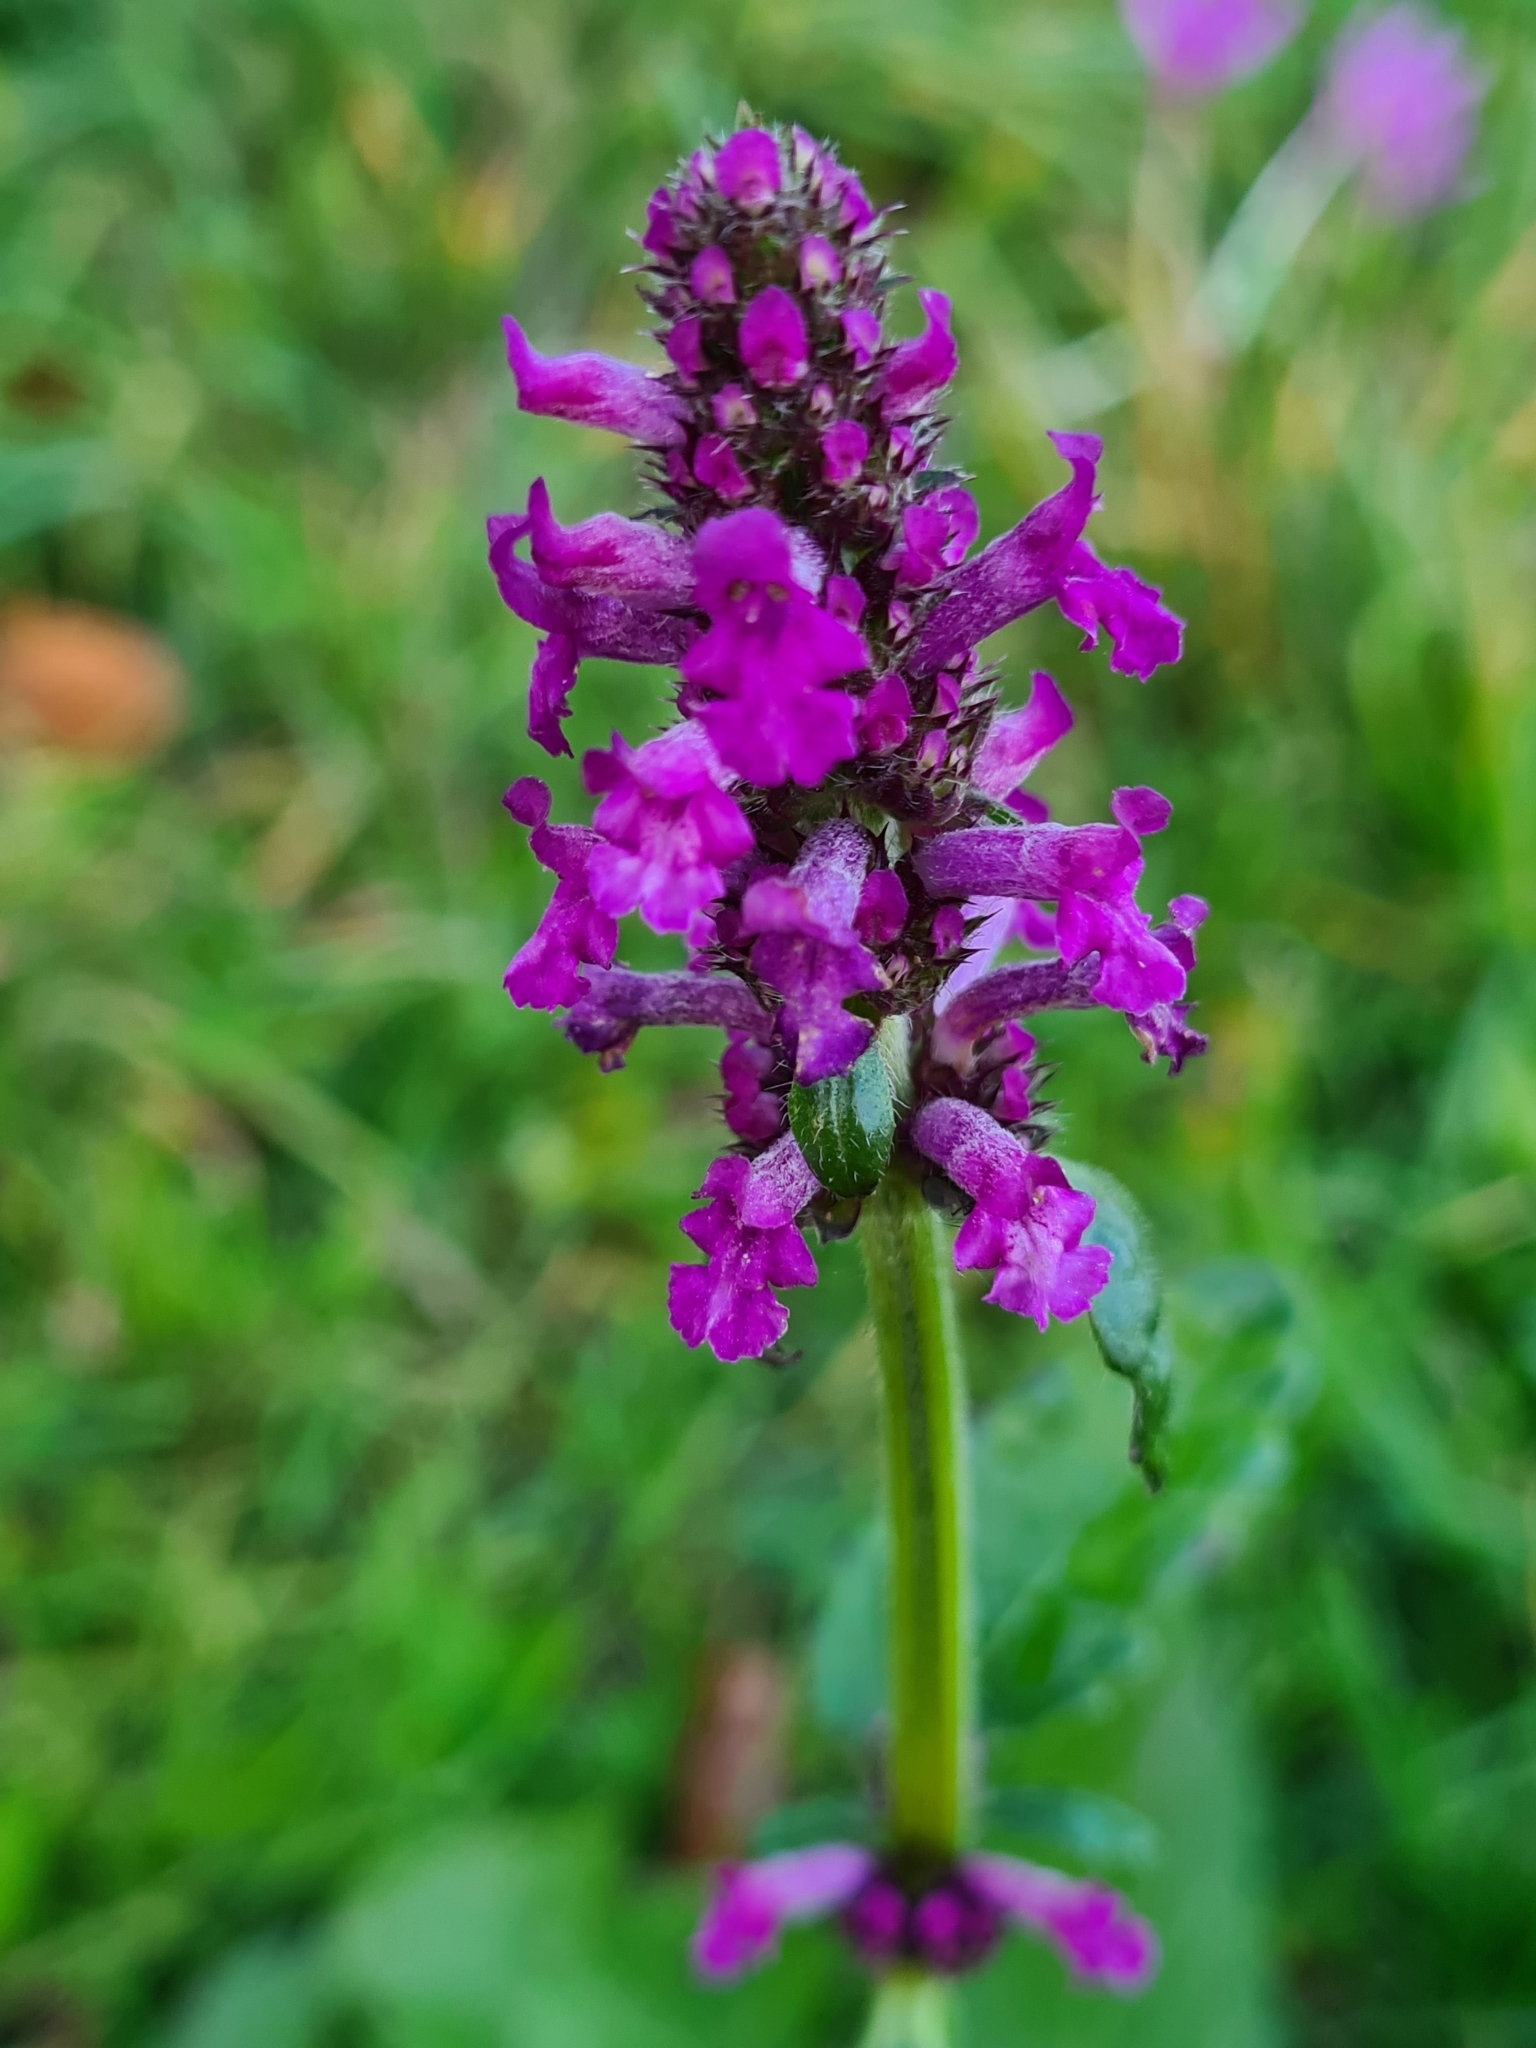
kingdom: Plantae
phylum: Tracheophyta
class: Magnoliopsida
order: Lamiales
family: Lamiaceae
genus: Betonica
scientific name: Betonica officinalis
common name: Bishop's-wort
